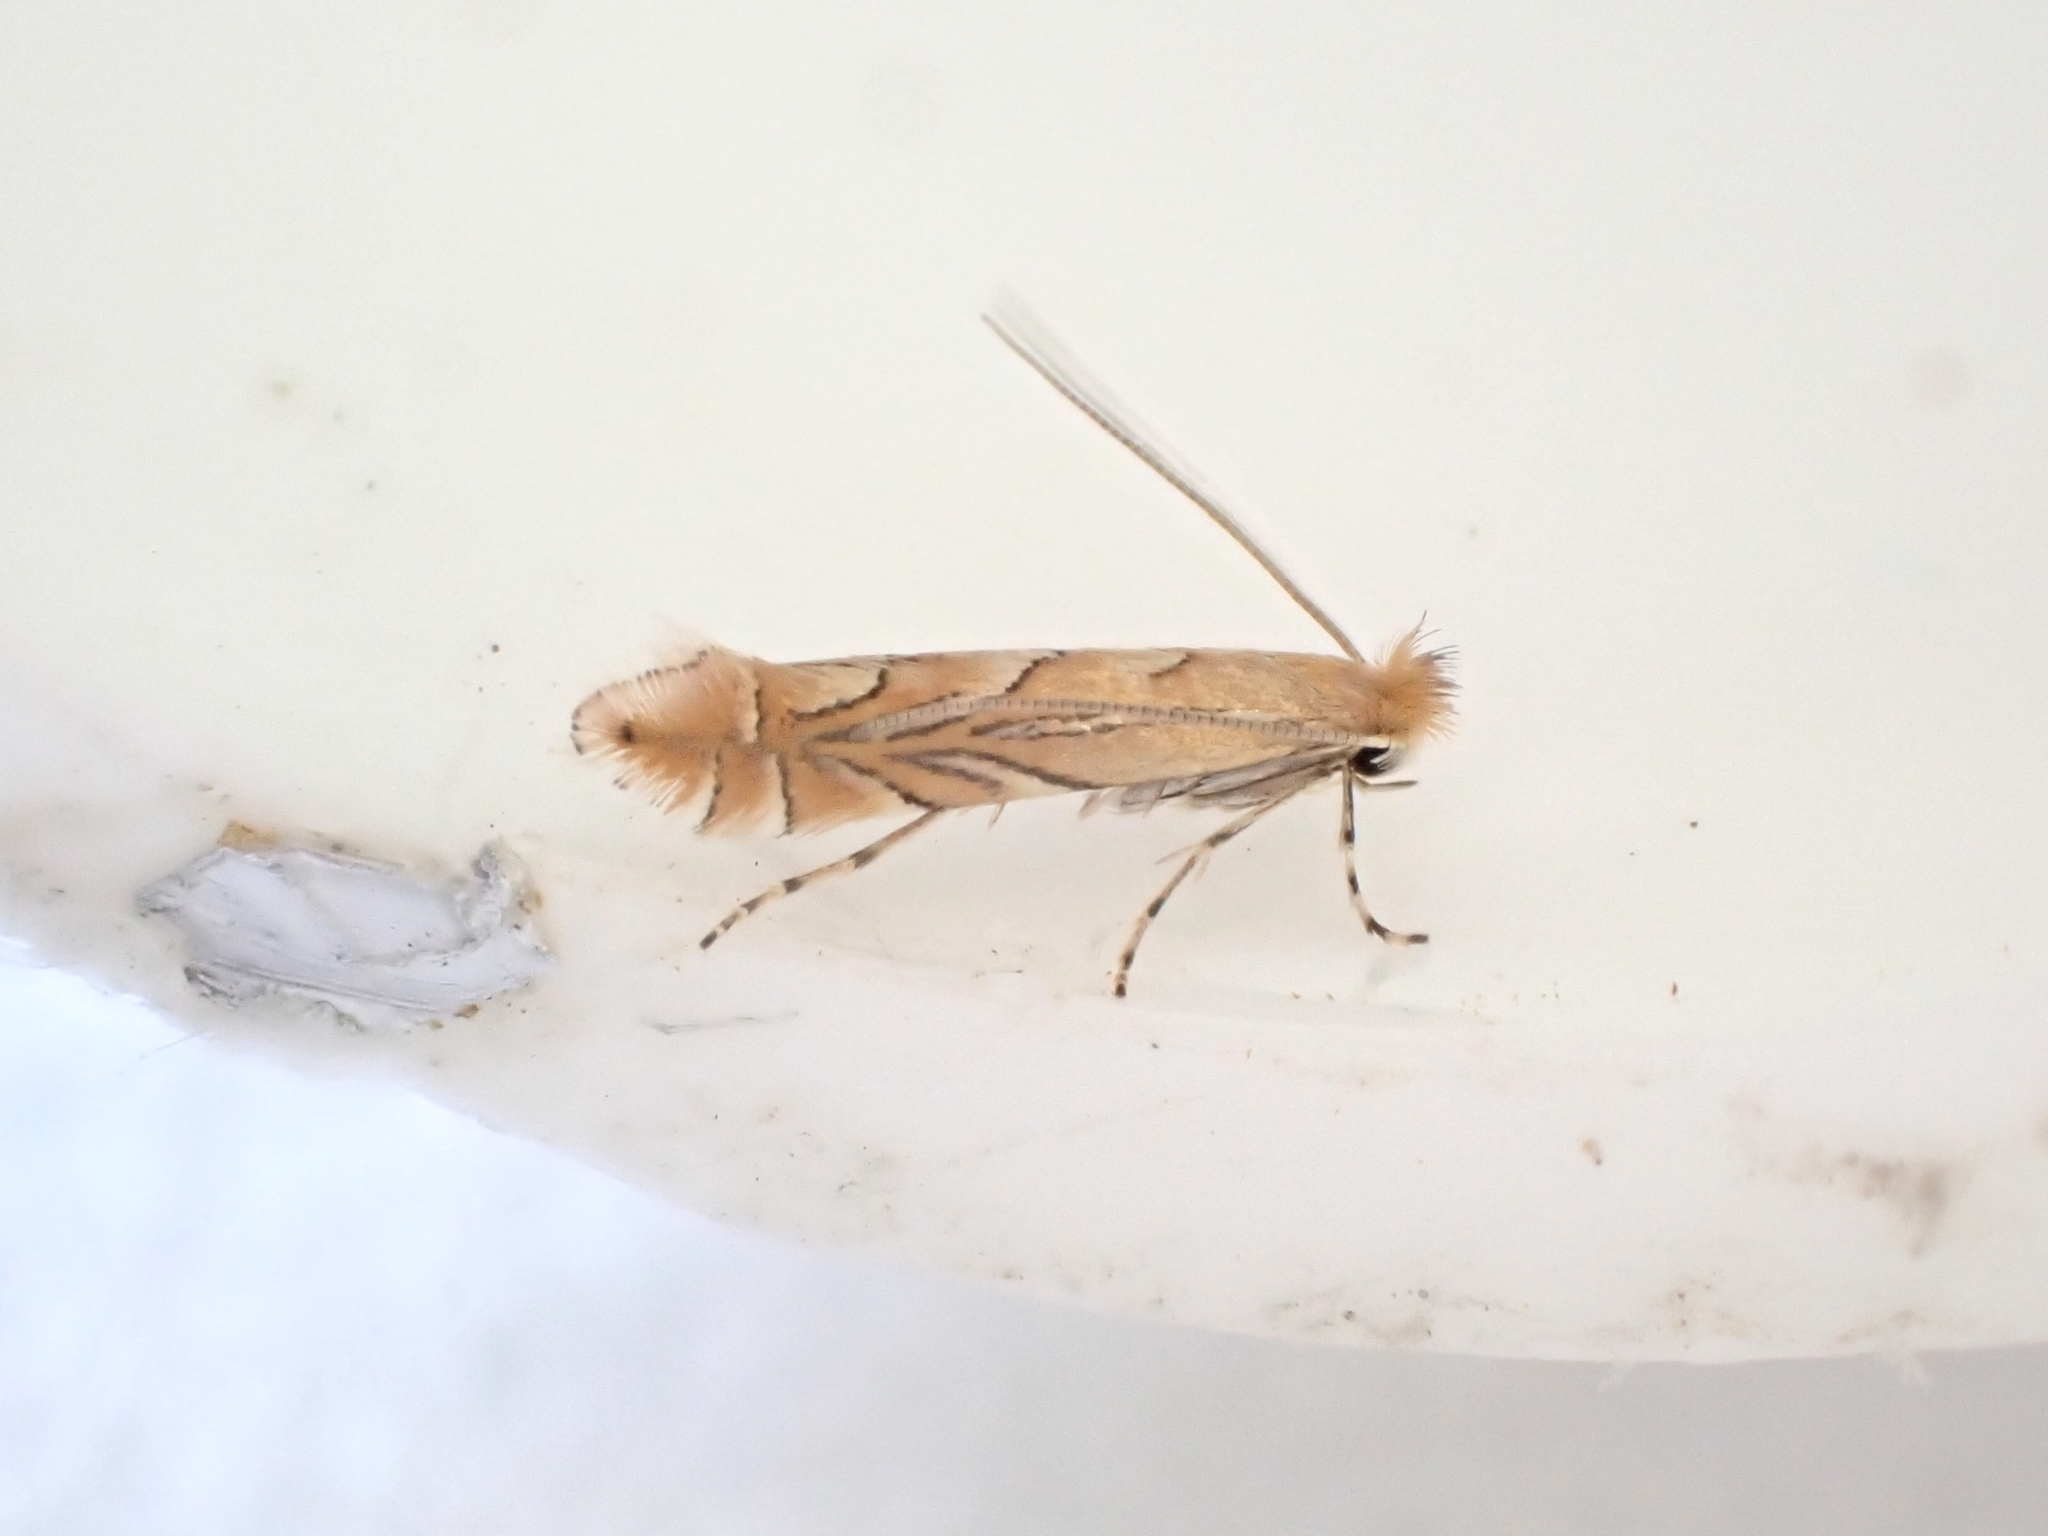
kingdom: Animalia
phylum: Arthropoda
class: Insecta
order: Lepidoptera
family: Gracillariidae
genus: Phyllonorycter
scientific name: Phyllonorycter messaniella
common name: Garden midget
